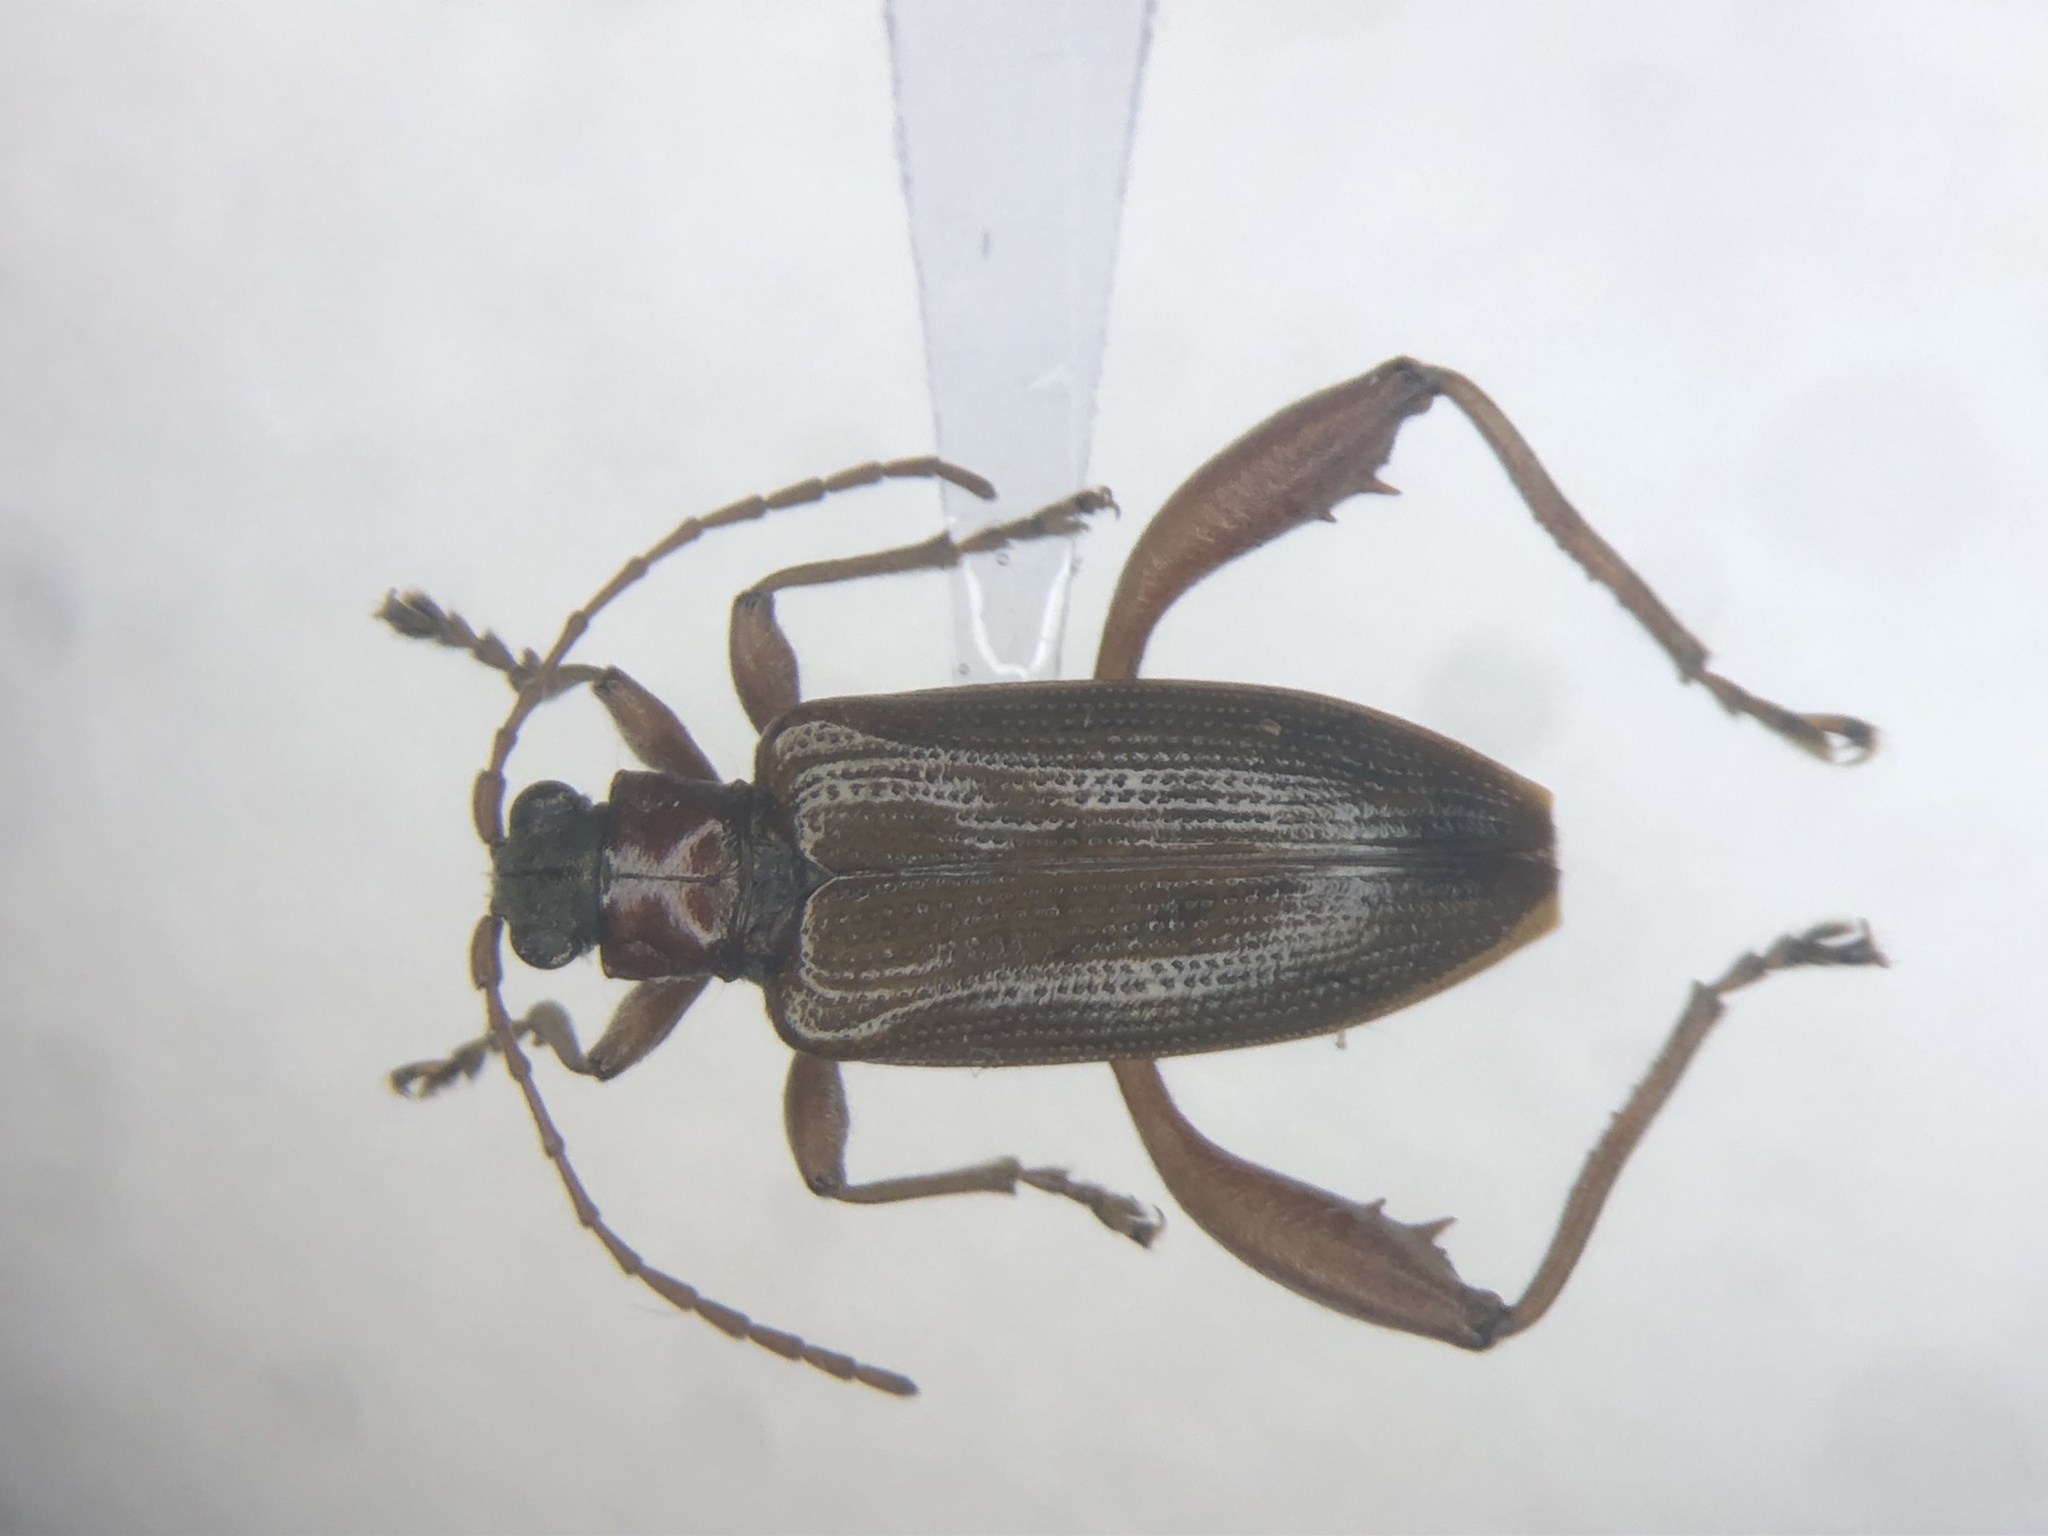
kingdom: Animalia
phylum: Arthropoda
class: Insecta
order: Coleoptera
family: Chrysomelidae
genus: Donacia
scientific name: Donacia cincticornis
